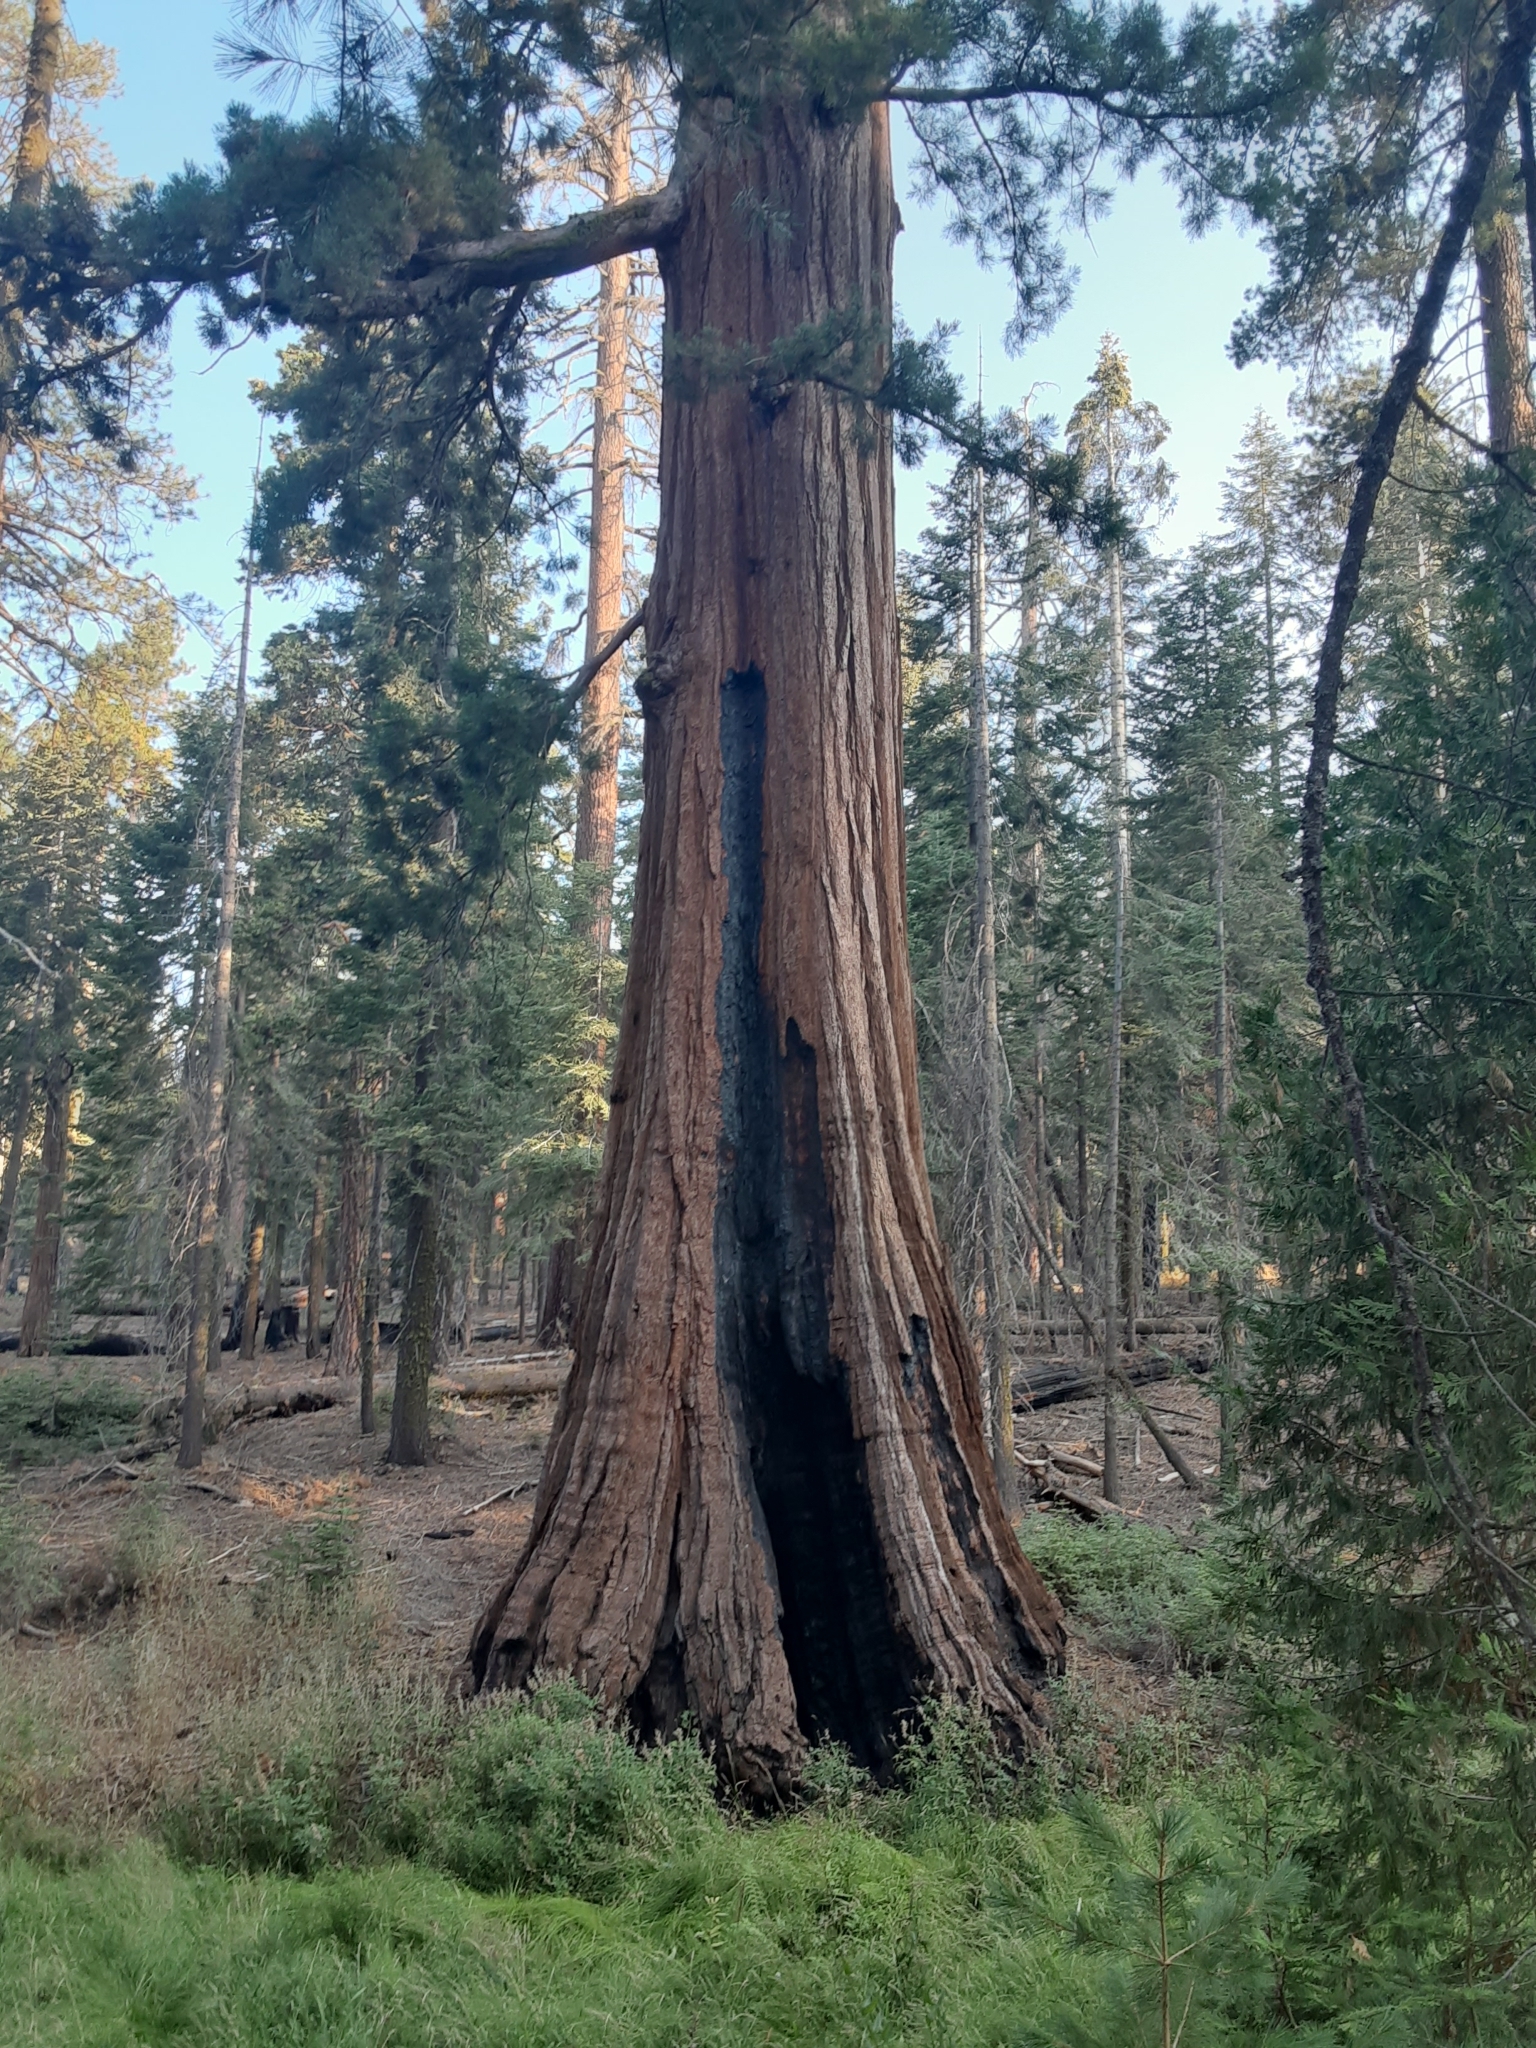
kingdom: Plantae
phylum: Tracheophyta
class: Pinopsida
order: Pinales
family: Cupressaceae
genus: Sequoiadendron
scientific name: Sequoiadendron giganteum
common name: Wellingtonia
